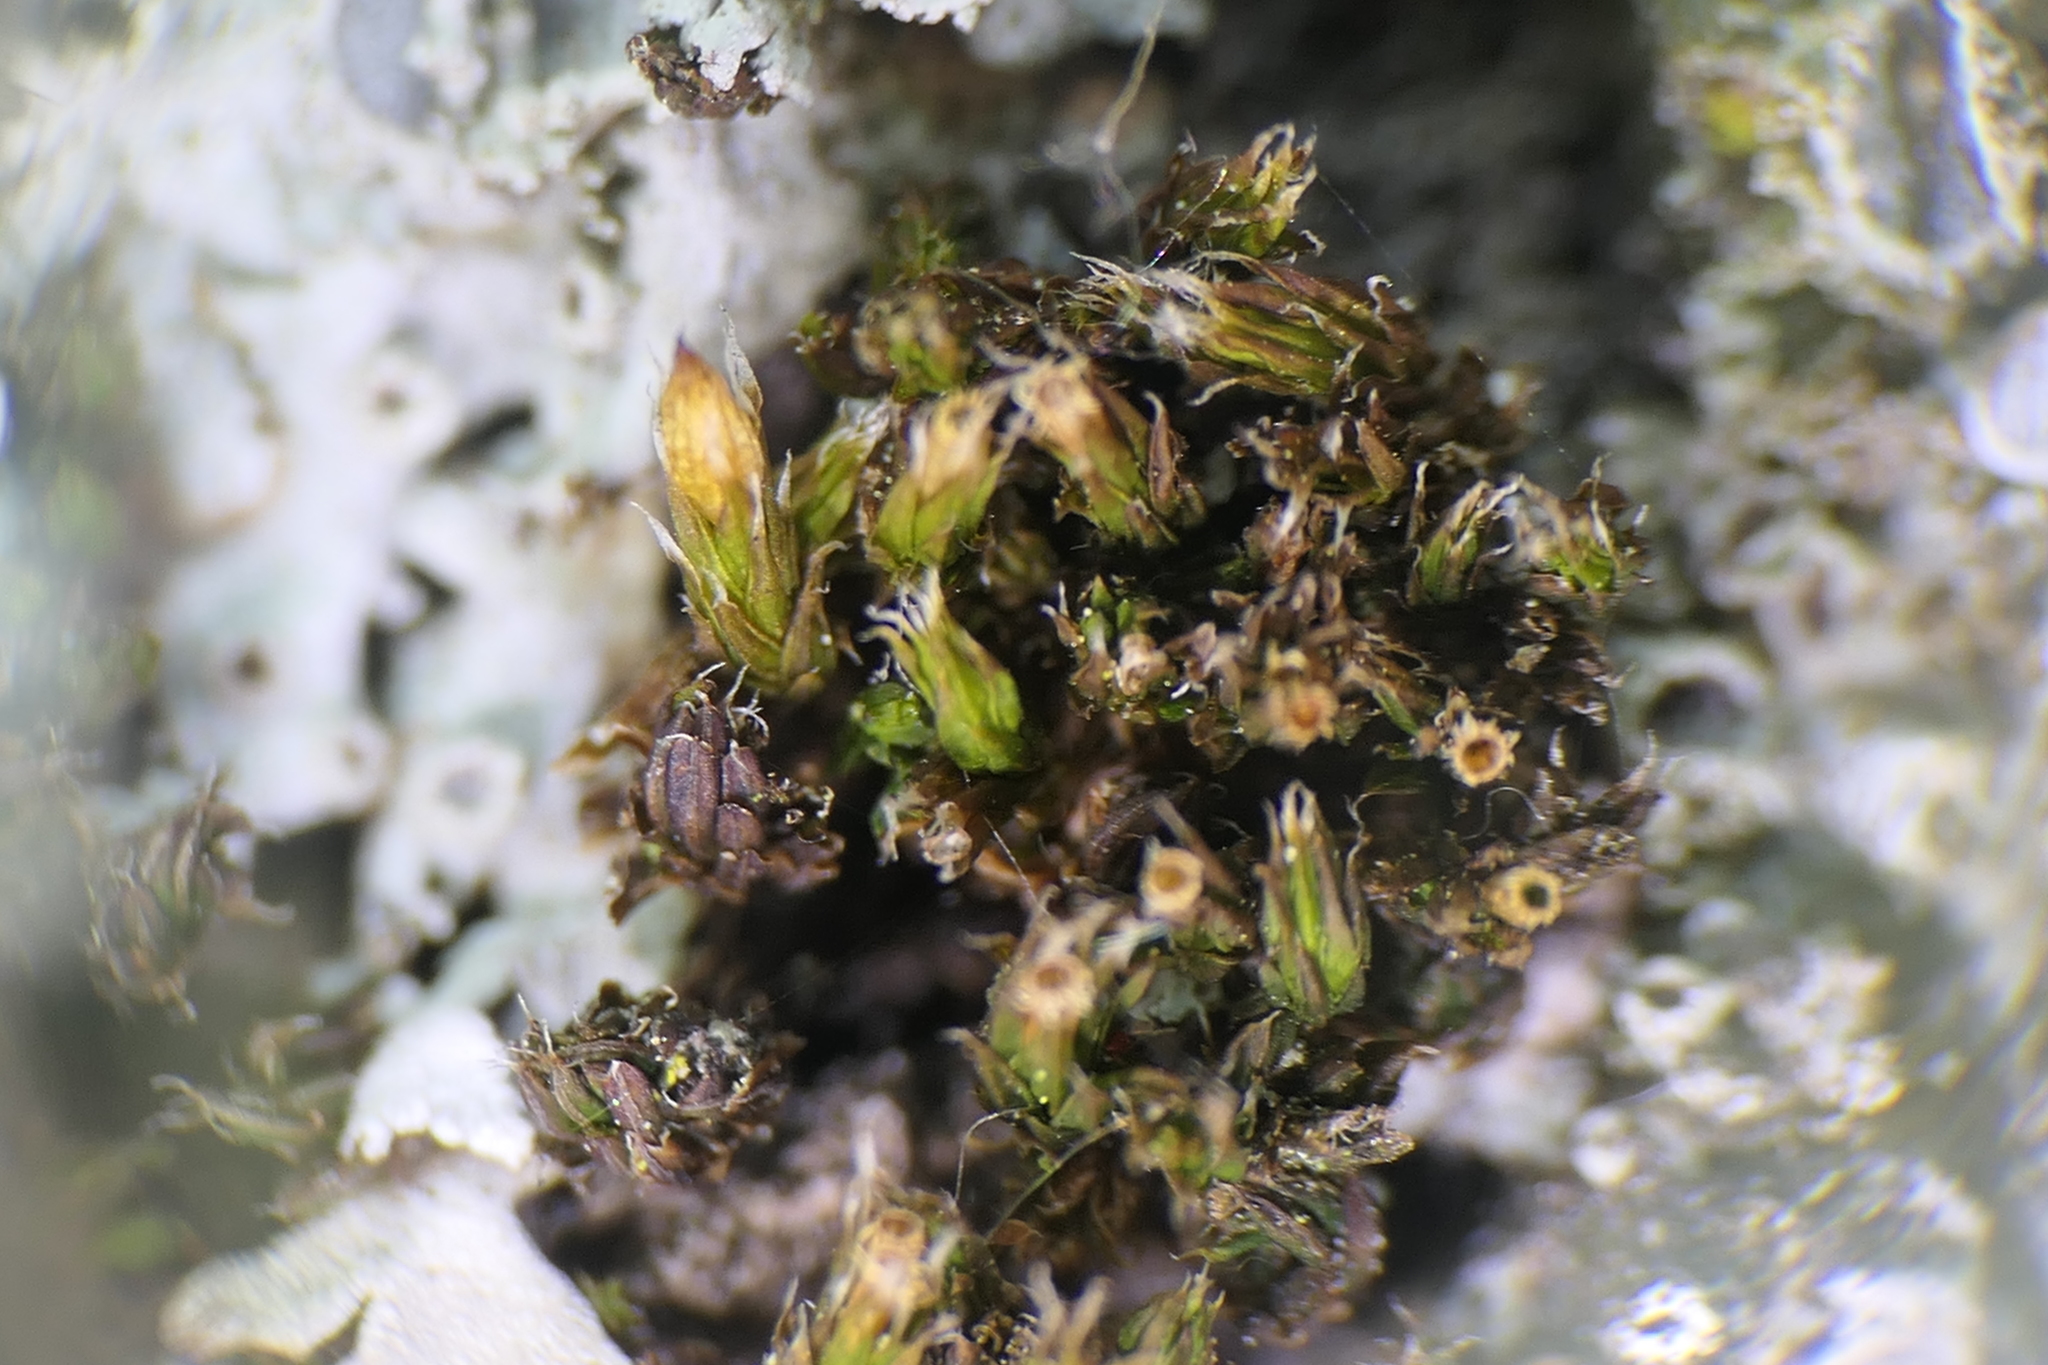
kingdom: Plantae
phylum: Bryophyta
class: Bryopsida
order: Orthotrichales
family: Orthotrichaceae
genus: Orthotrichum
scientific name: Orthotrichum diaphanum
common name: White-tipped bristle-moss
